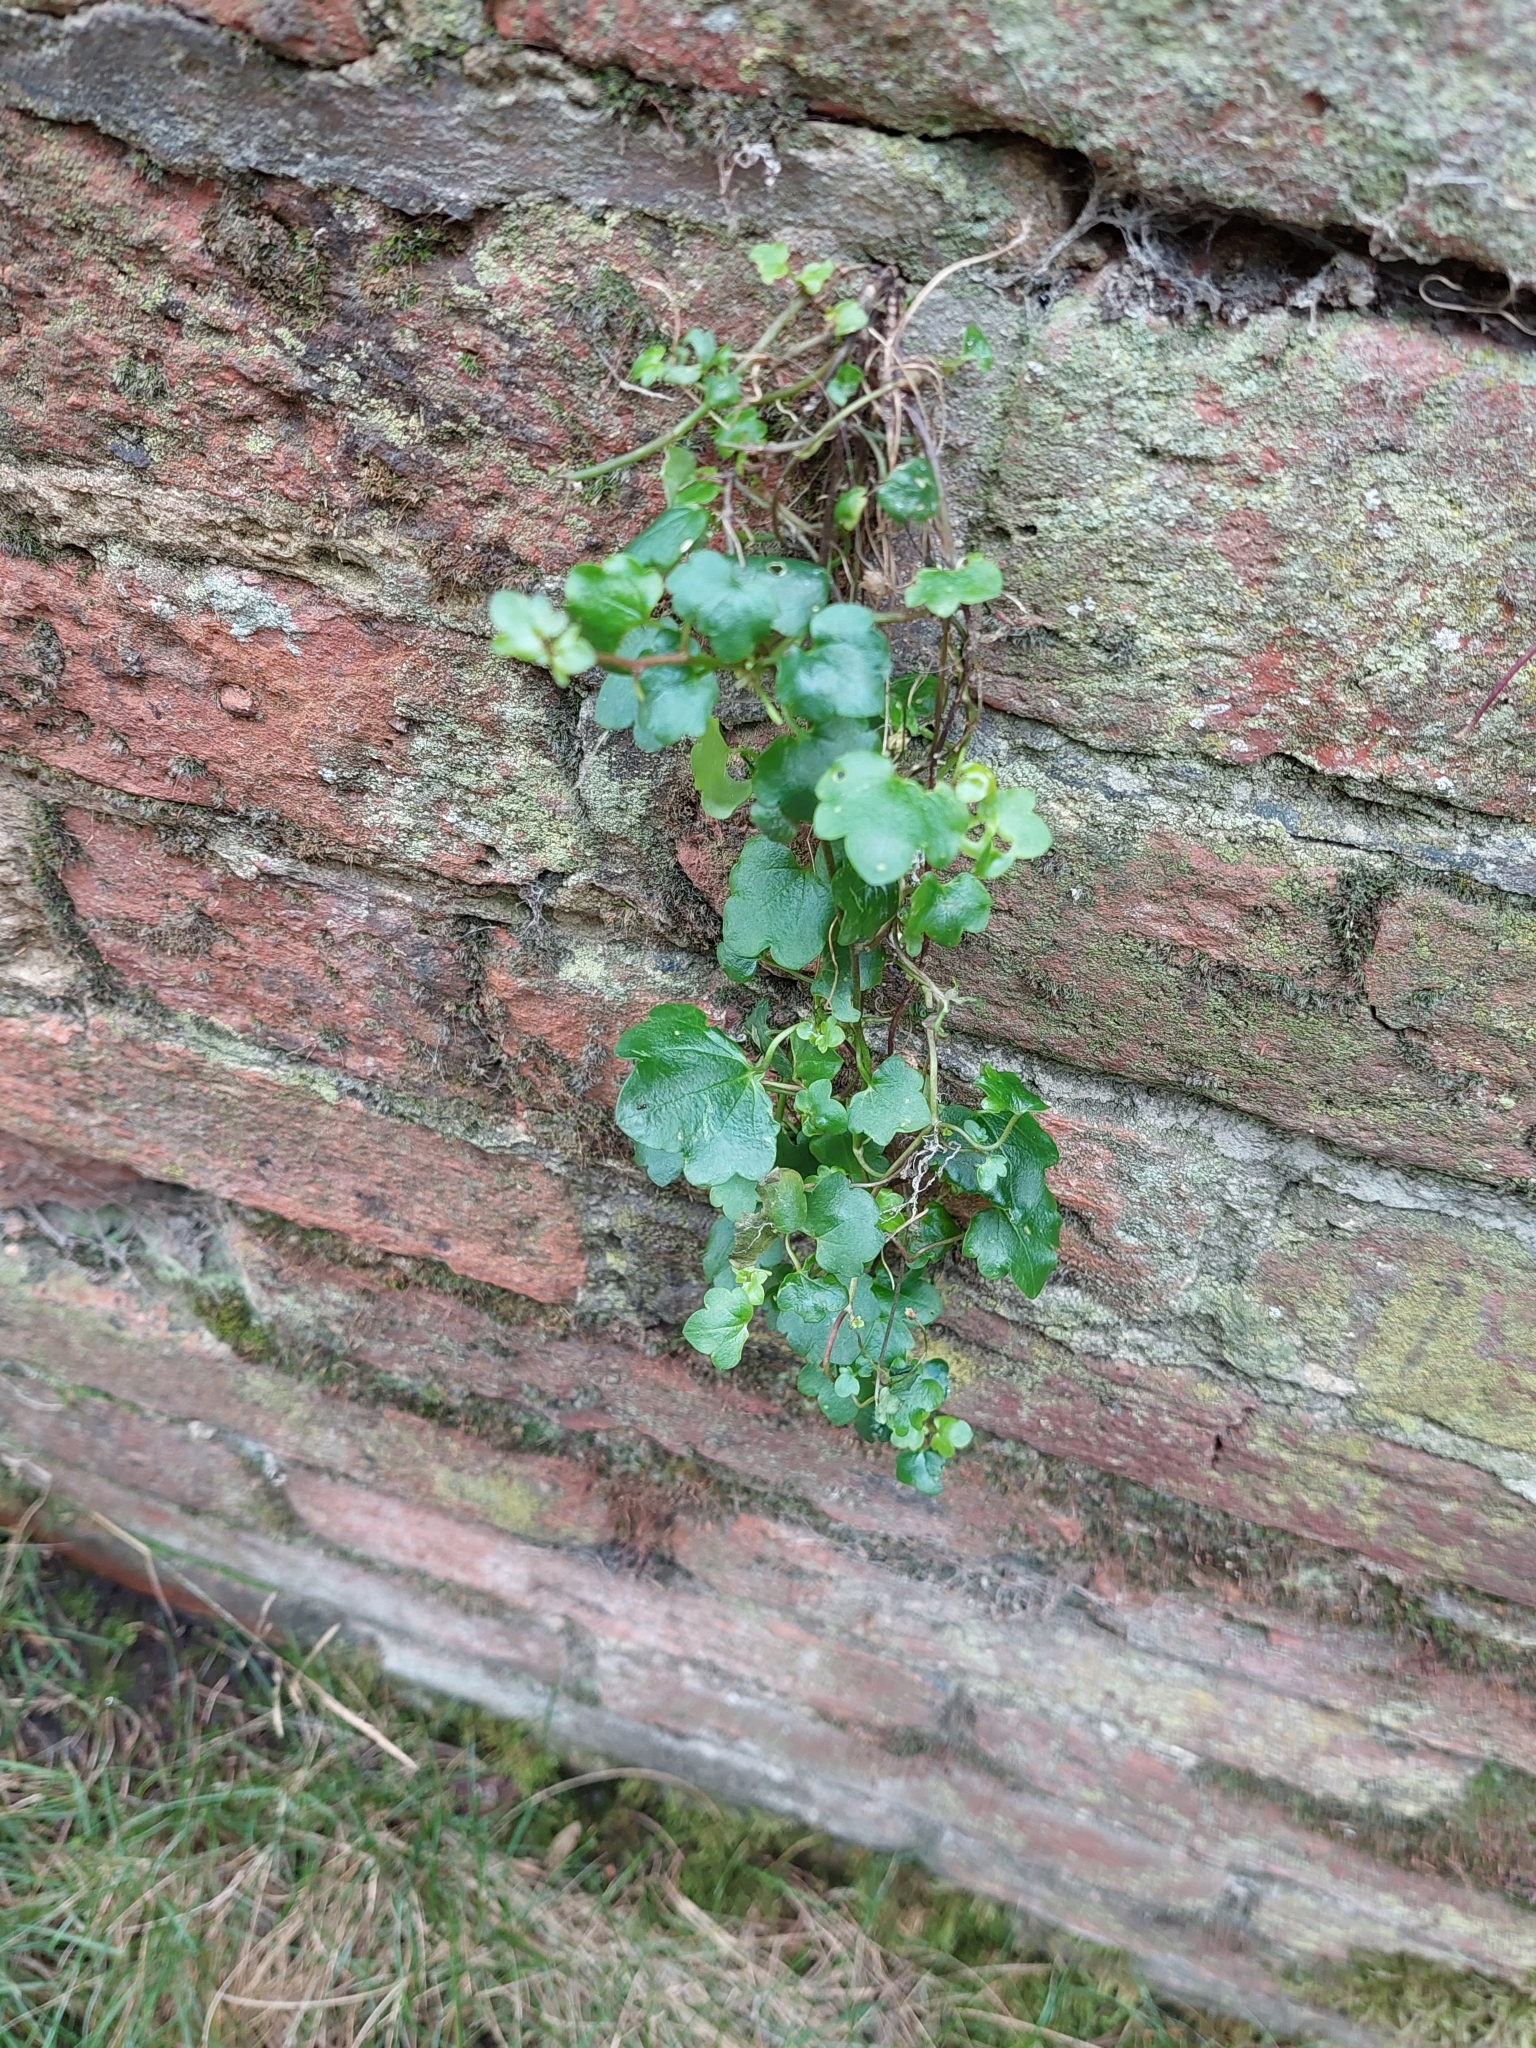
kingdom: Plantae
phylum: Tracheophyta
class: Magnoliopsida
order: Lamiales
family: Plantaginaceae
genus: Cymbalaria
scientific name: Cymbalaria muralis
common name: Ivy-leaved toadflax
